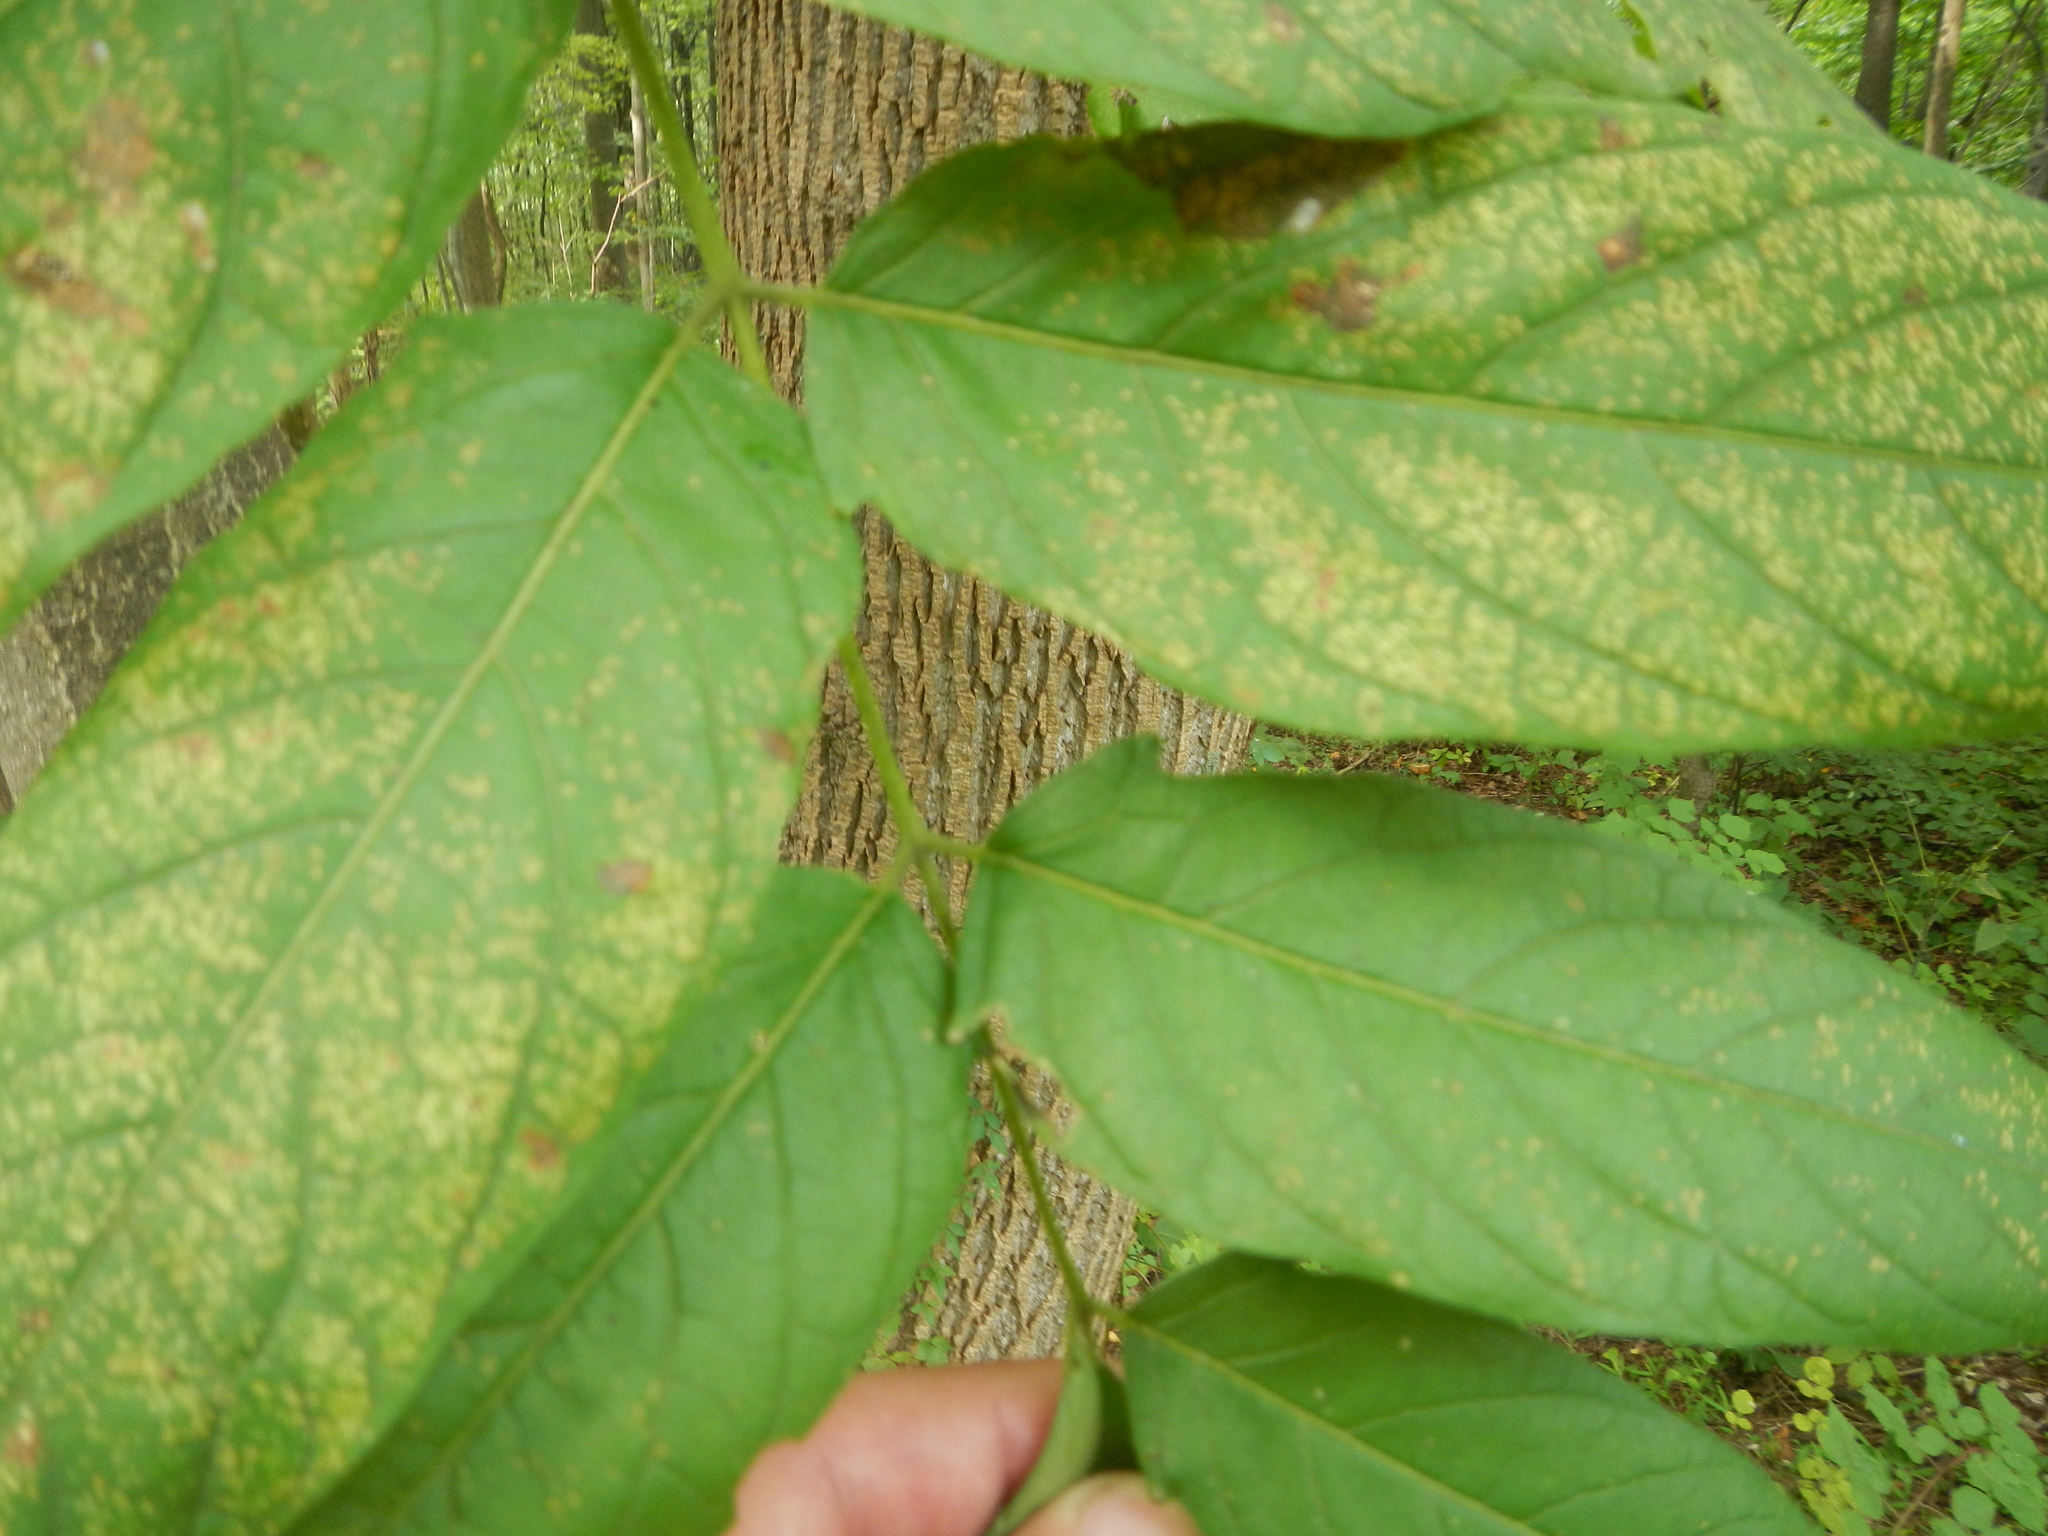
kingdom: Plantae
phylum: Tracheophyta
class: Magnoliopsida
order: Sapindales
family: Simaroubaceae
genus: Ailanthus
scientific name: Ailanthus altissima
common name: Tree-of-heaven
